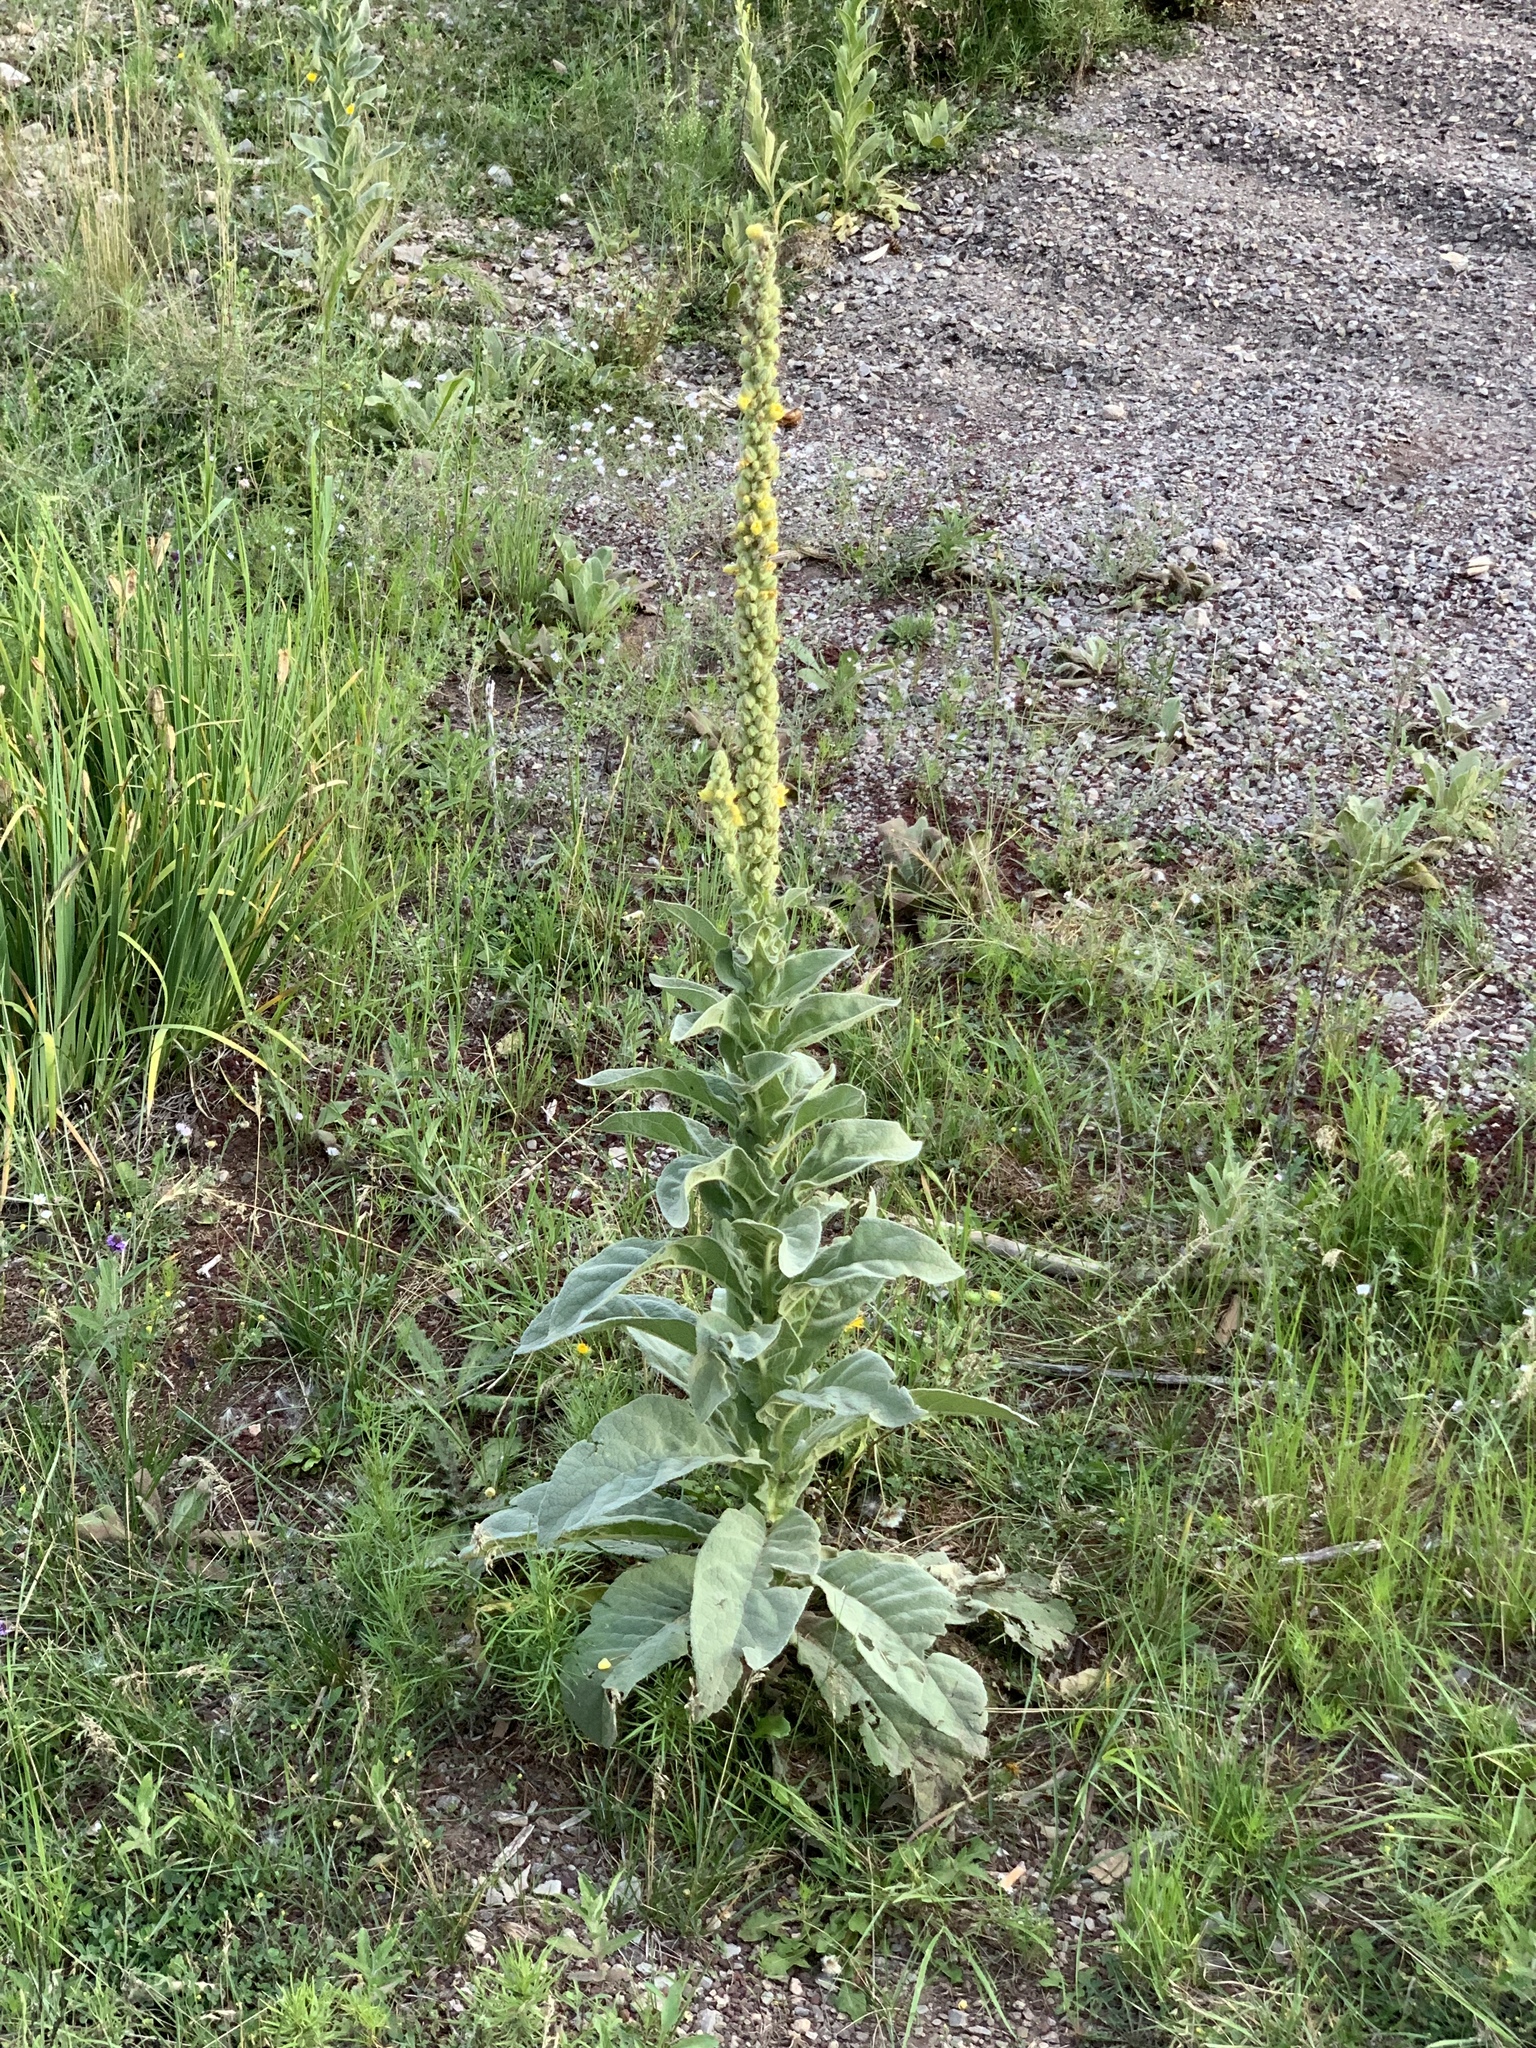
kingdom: Plantae
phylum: Tracheophyta
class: Magnoliopsida
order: Lamiales
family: Scrophulariaceae
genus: Verbascum
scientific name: Verbascum thapsus
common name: Common mullein
